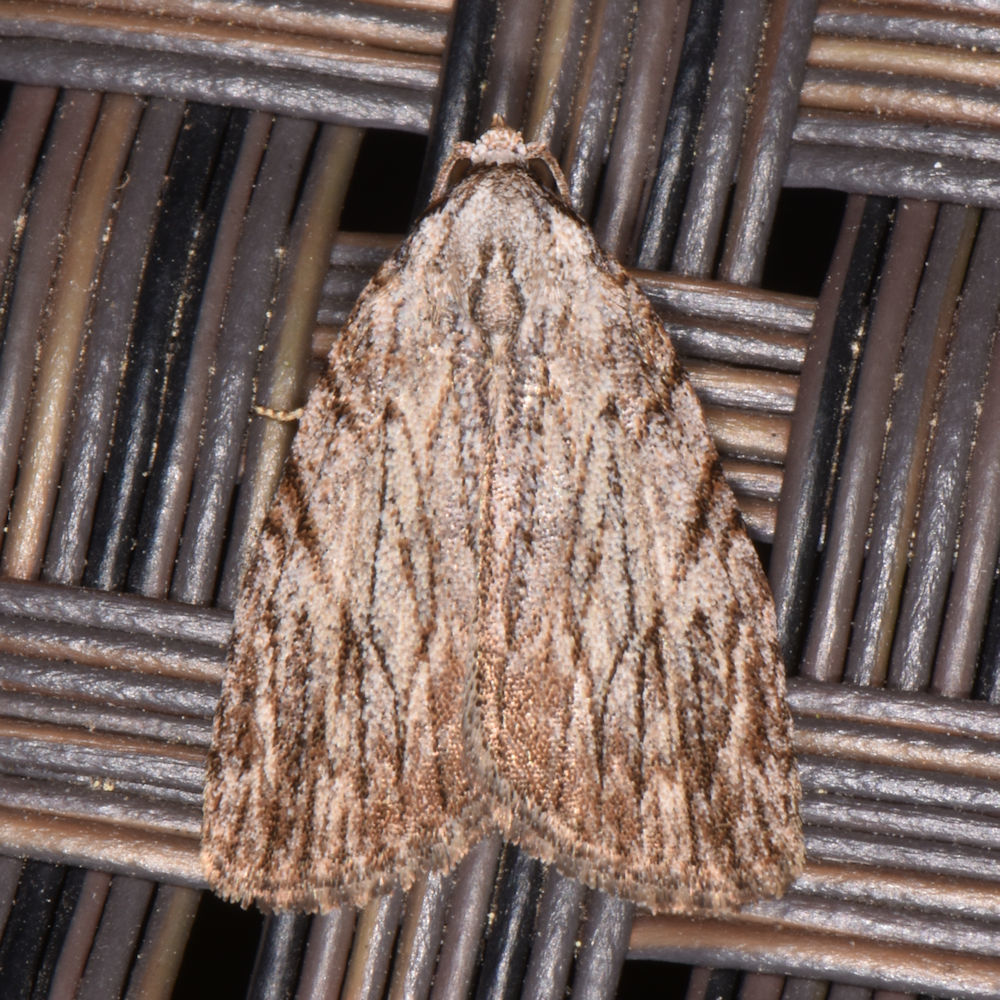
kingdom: Animalia
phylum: Arthropoda
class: Insecta
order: Lepidoptera
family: Noctuidae
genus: Balsa
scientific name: Balsa tristrigella
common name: Three-lined balsa moth
